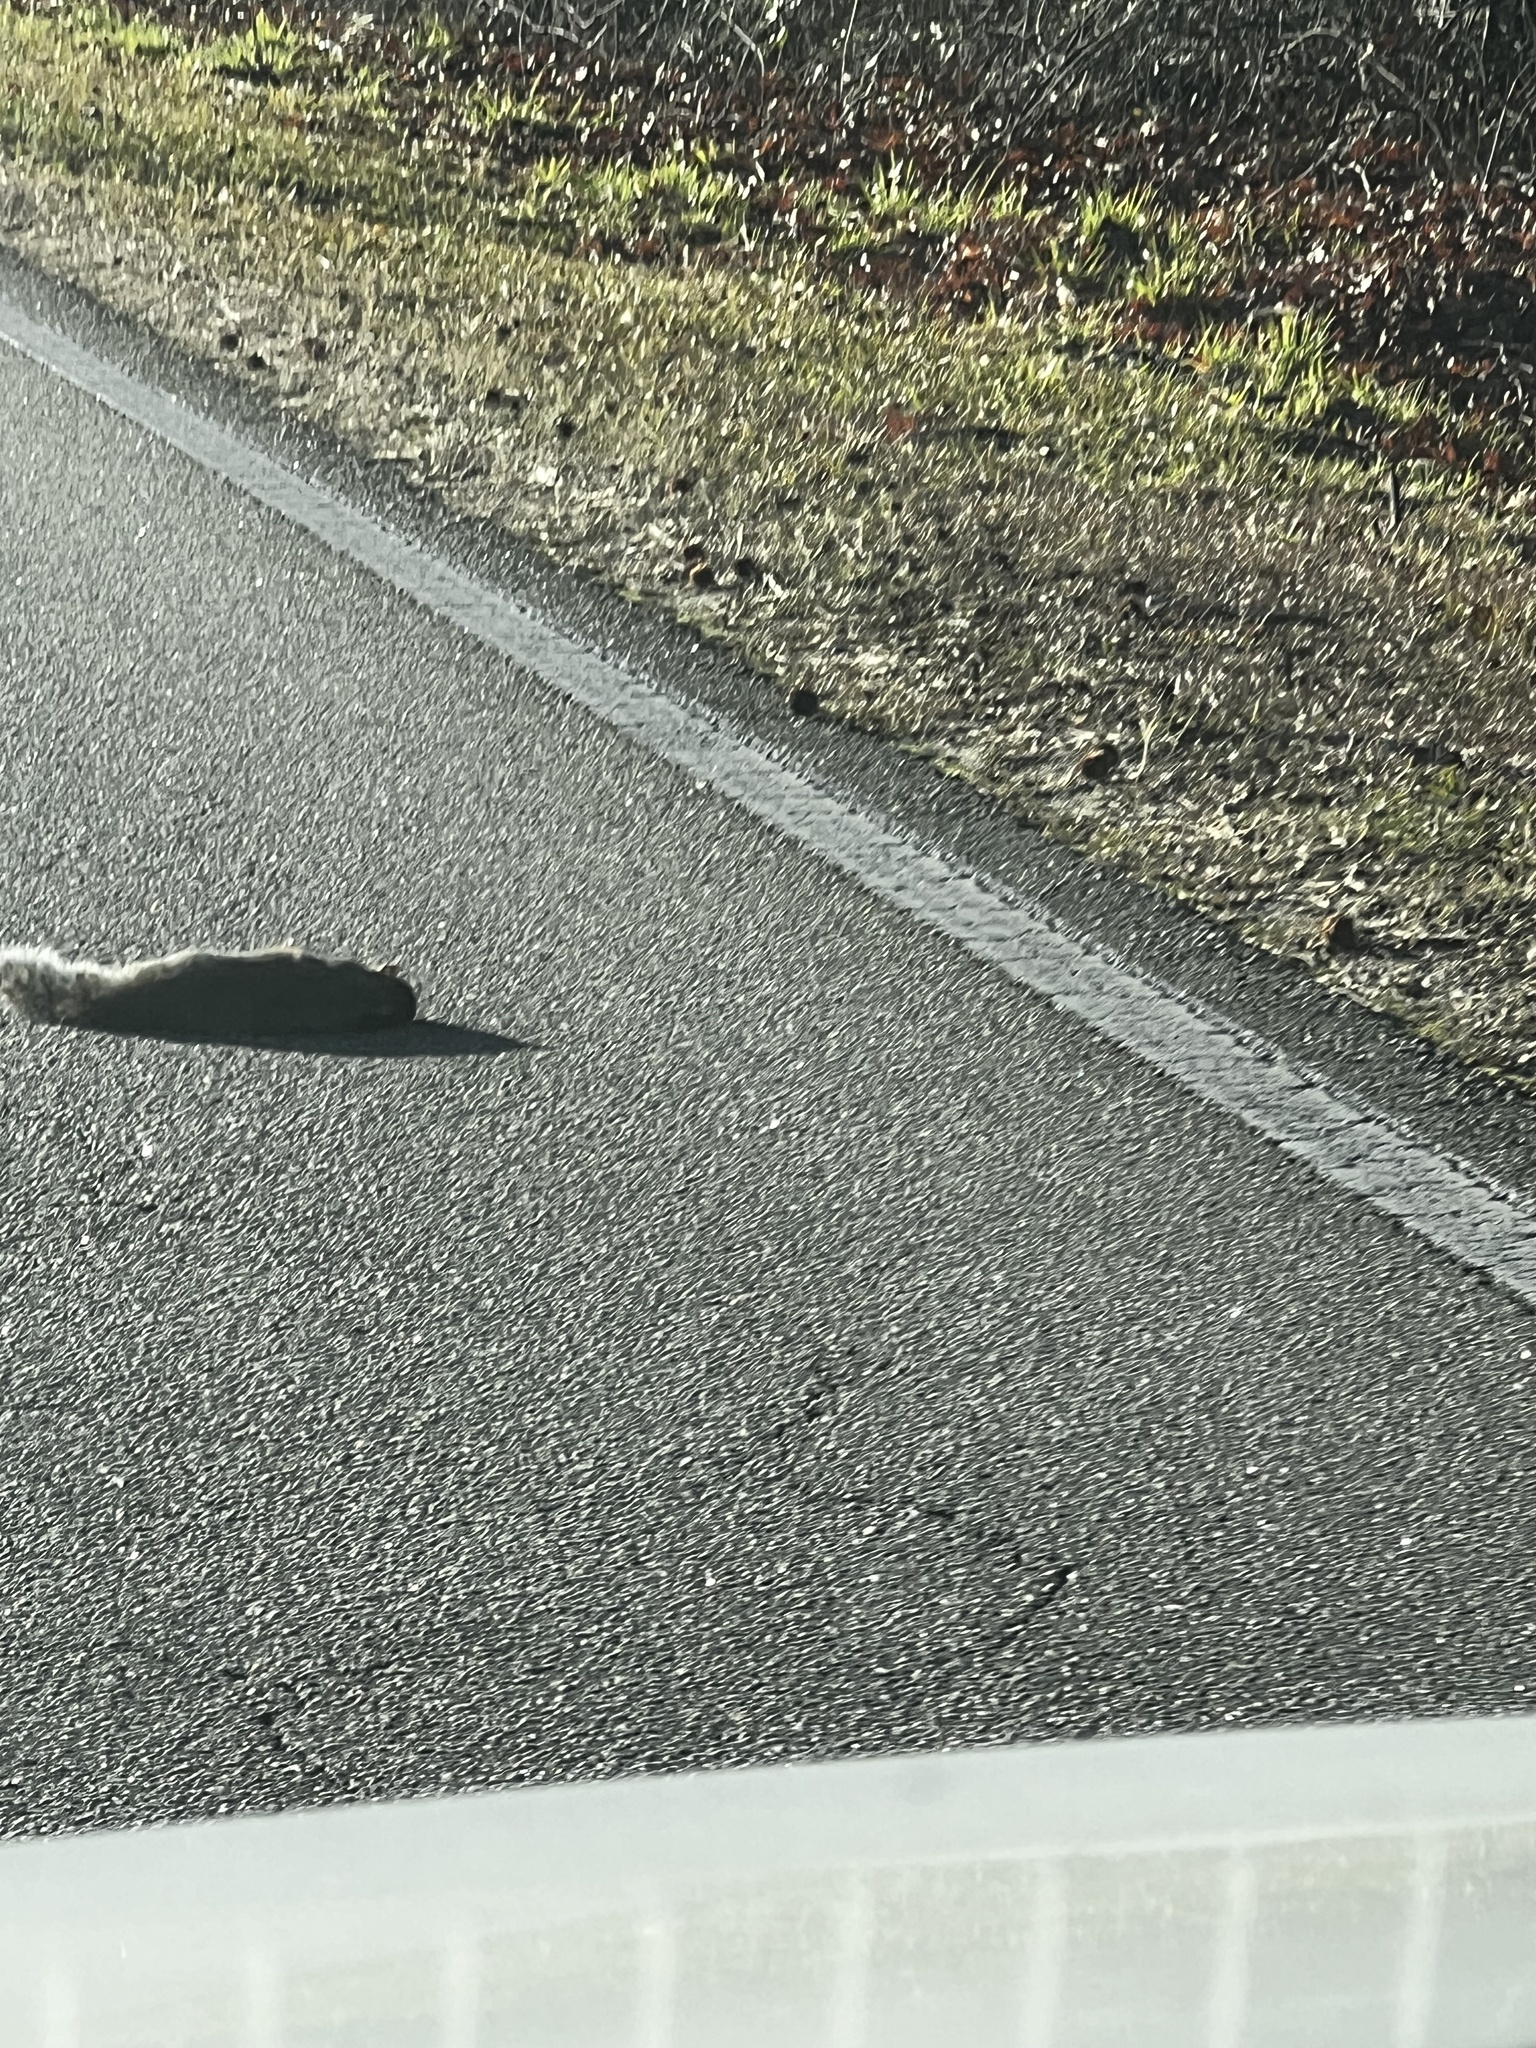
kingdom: Animalia
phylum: Chordata
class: Mammalia
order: Rodentia
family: Sciuridae
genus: Sciurus
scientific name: Sciurus carolinensis
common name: Eastern gray squirrel
